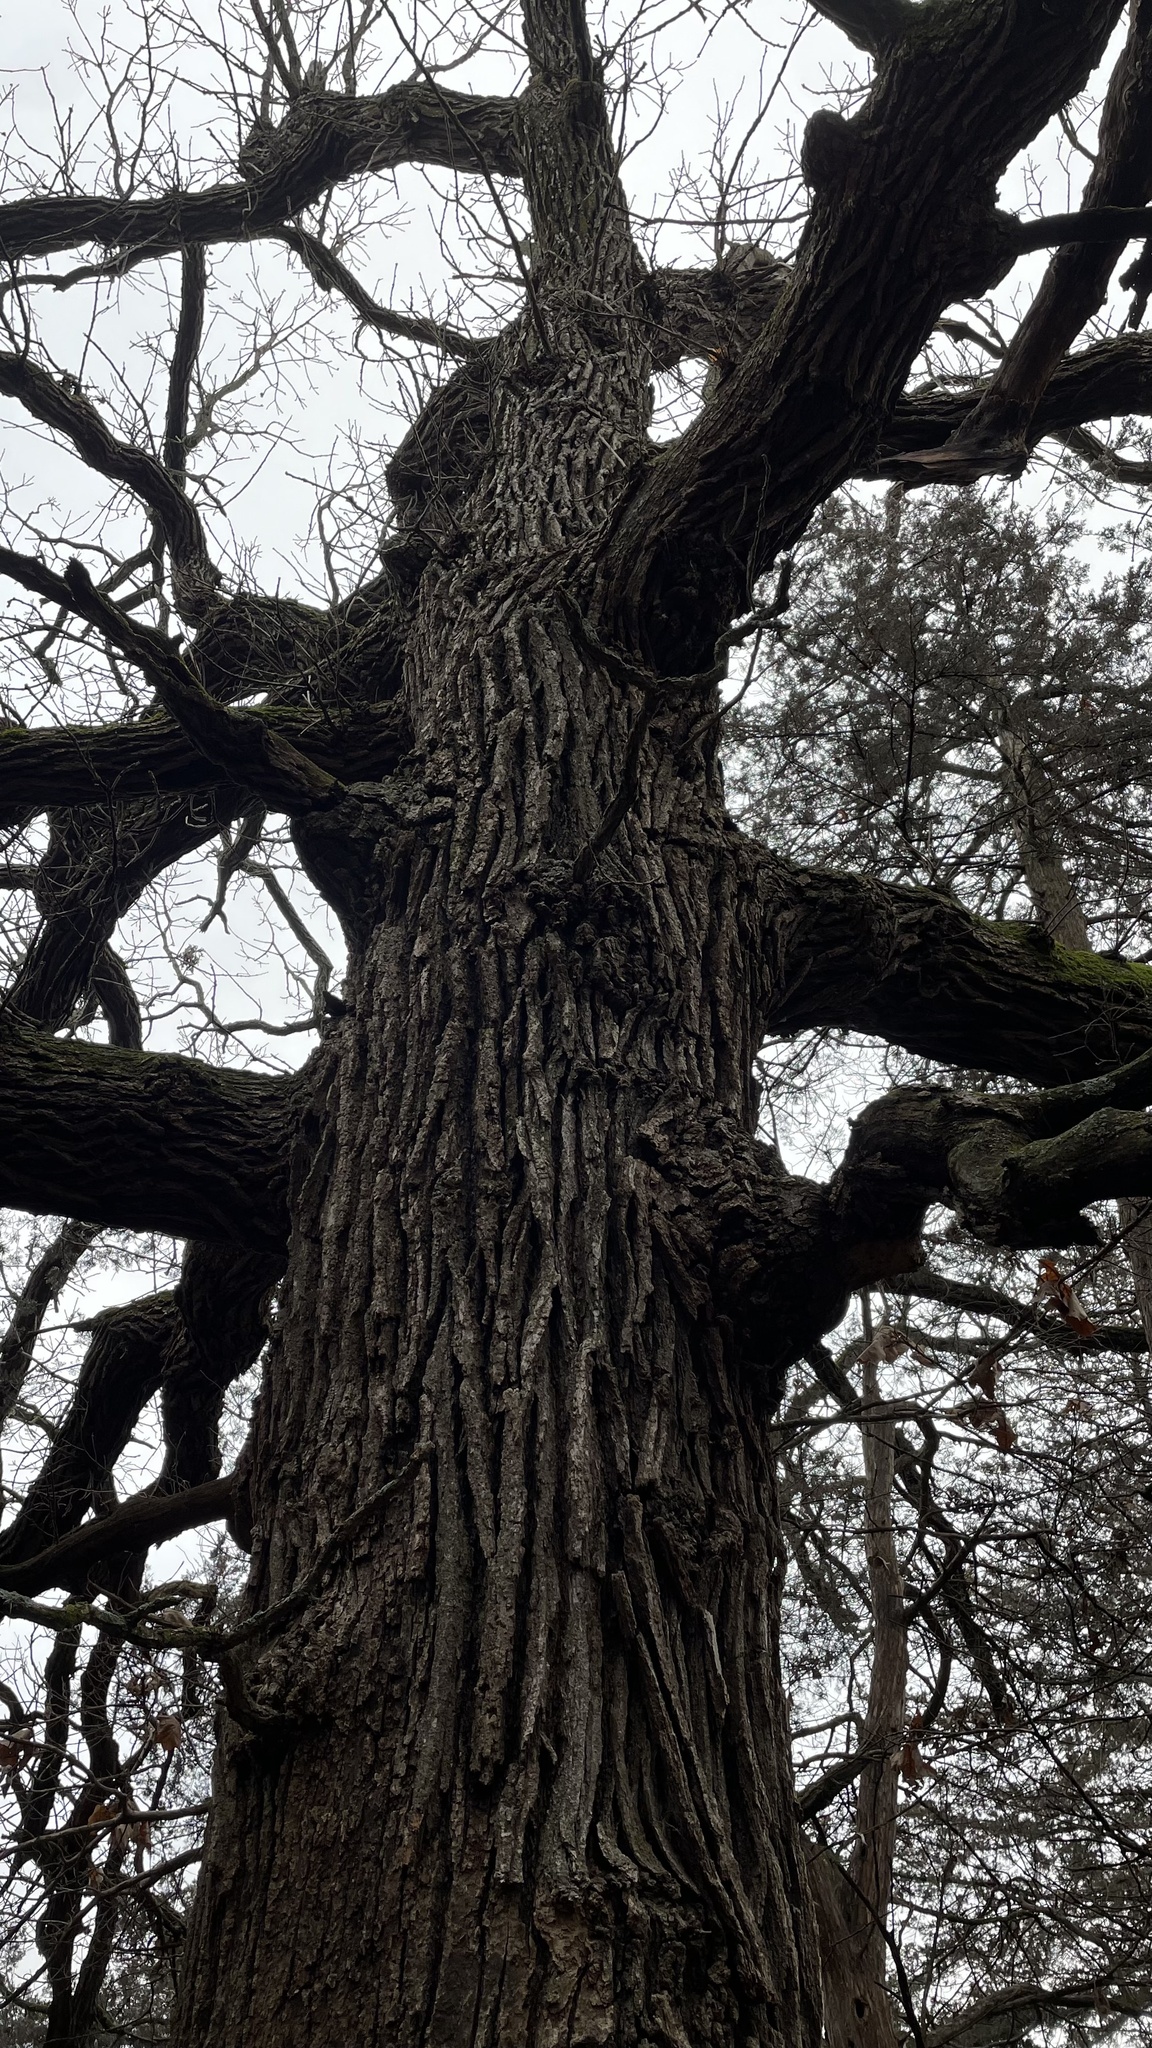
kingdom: Plantae
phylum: Tracheophyta
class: Magnoliopsida
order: Fagales
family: Fagaceae
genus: Quercus
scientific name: Quercus macrocarpa
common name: Bur oak
